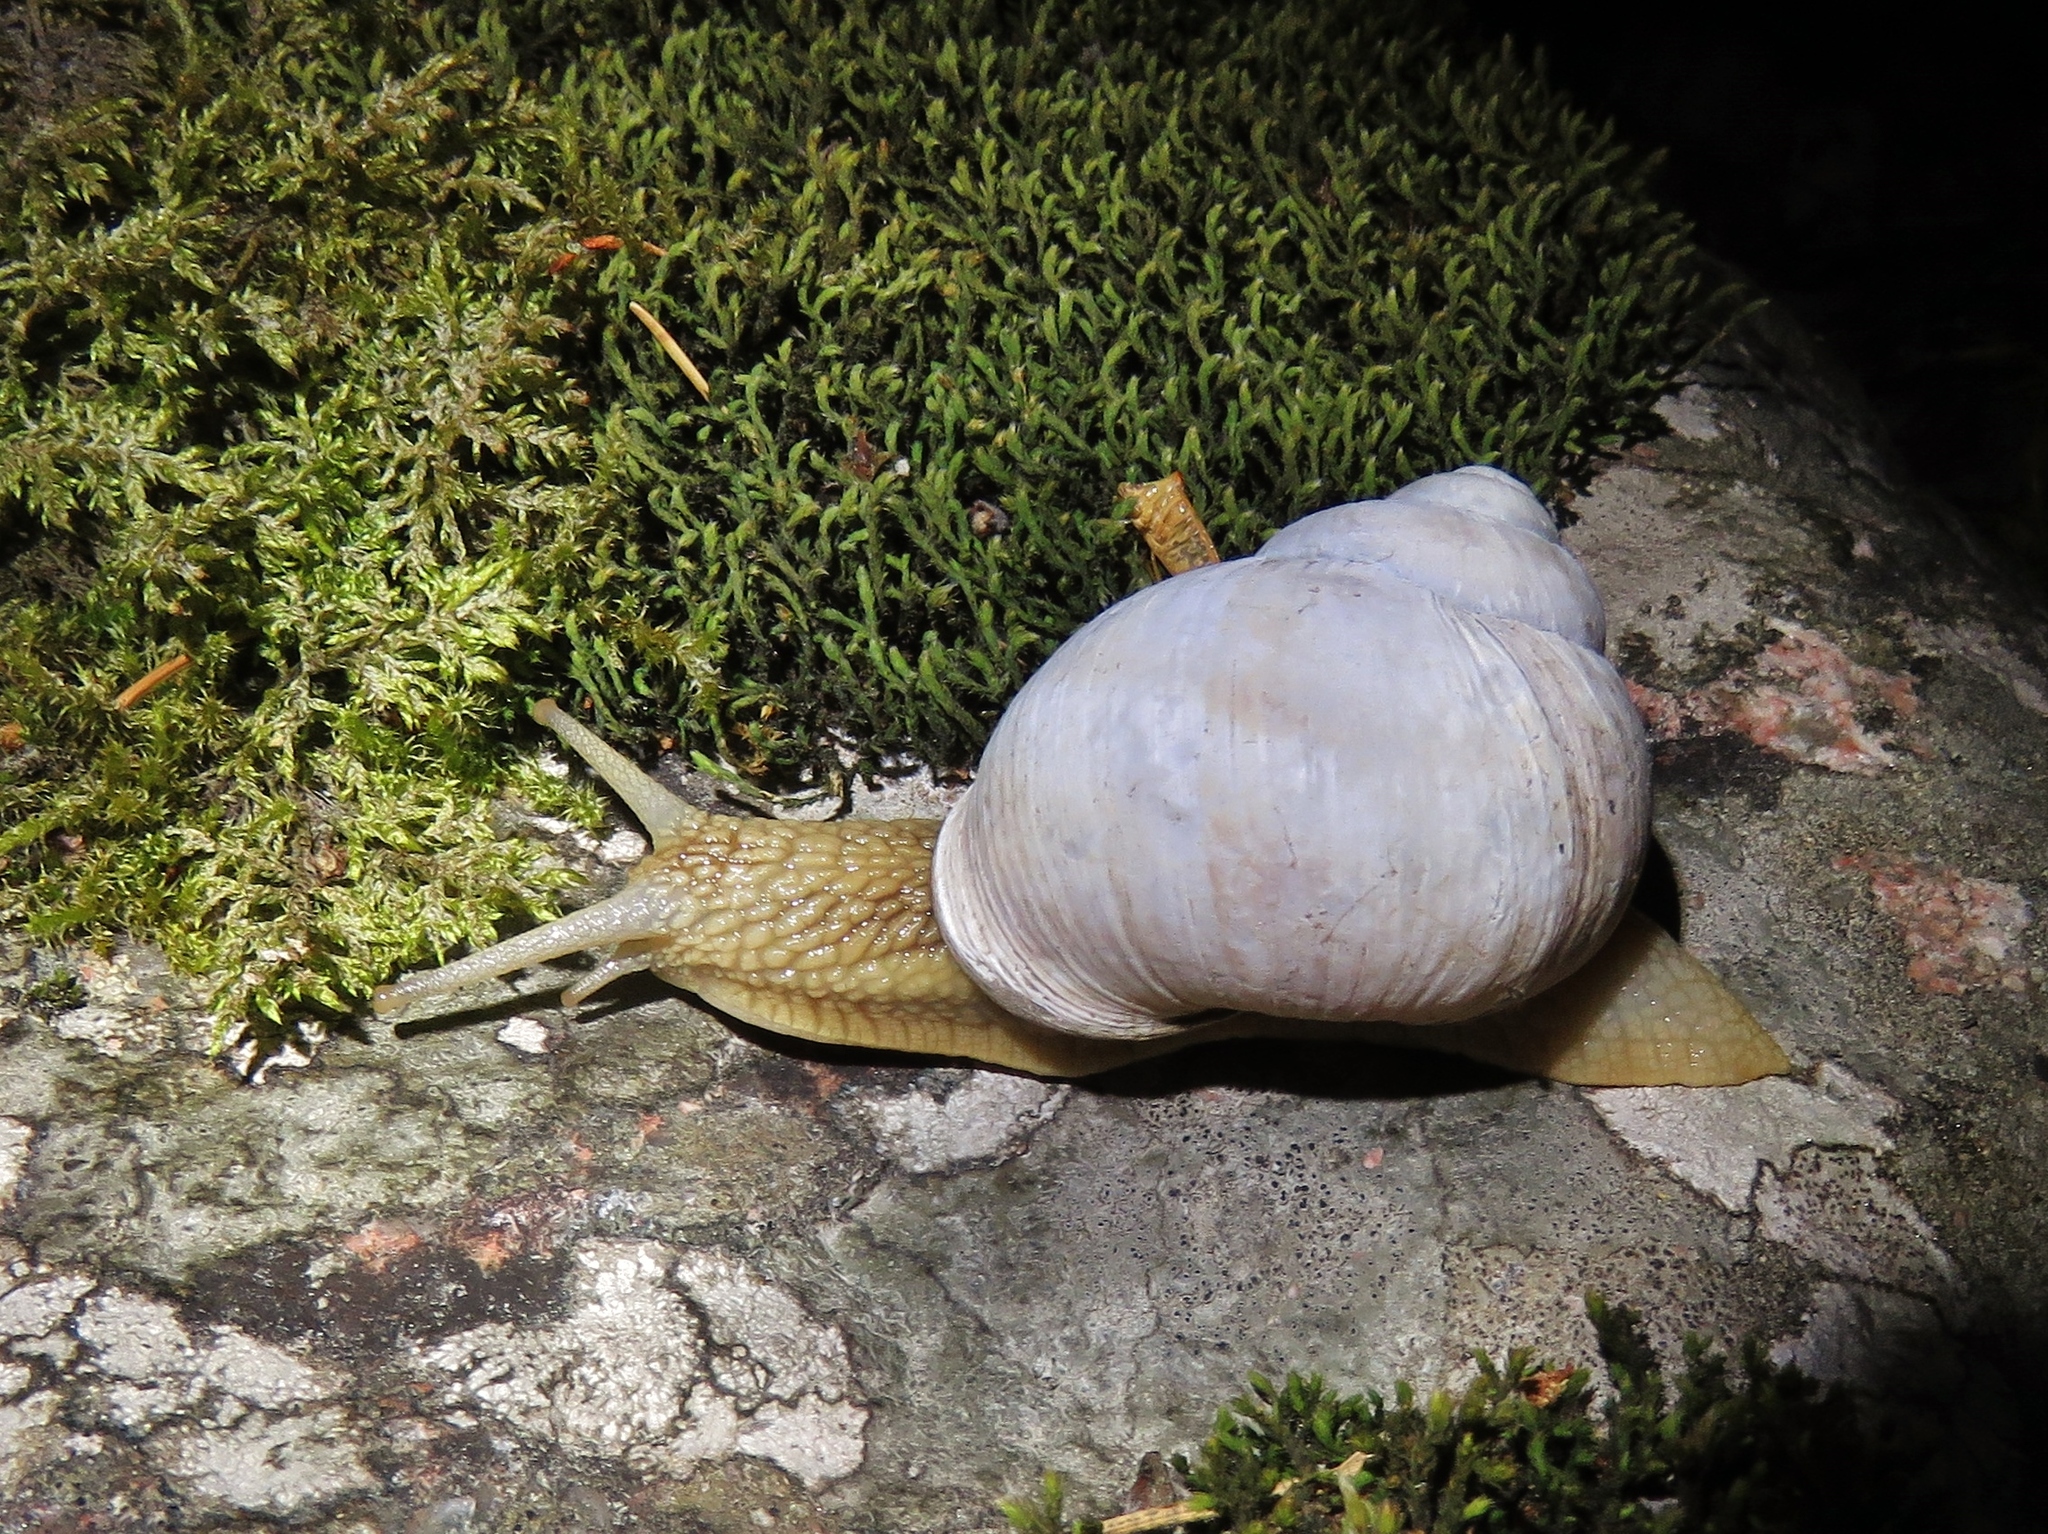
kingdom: Animalia
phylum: Mollusca
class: Gastropoda
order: Stylommatophora
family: Helicidae
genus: Helix
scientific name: Helix pomatia
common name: Roman snail
